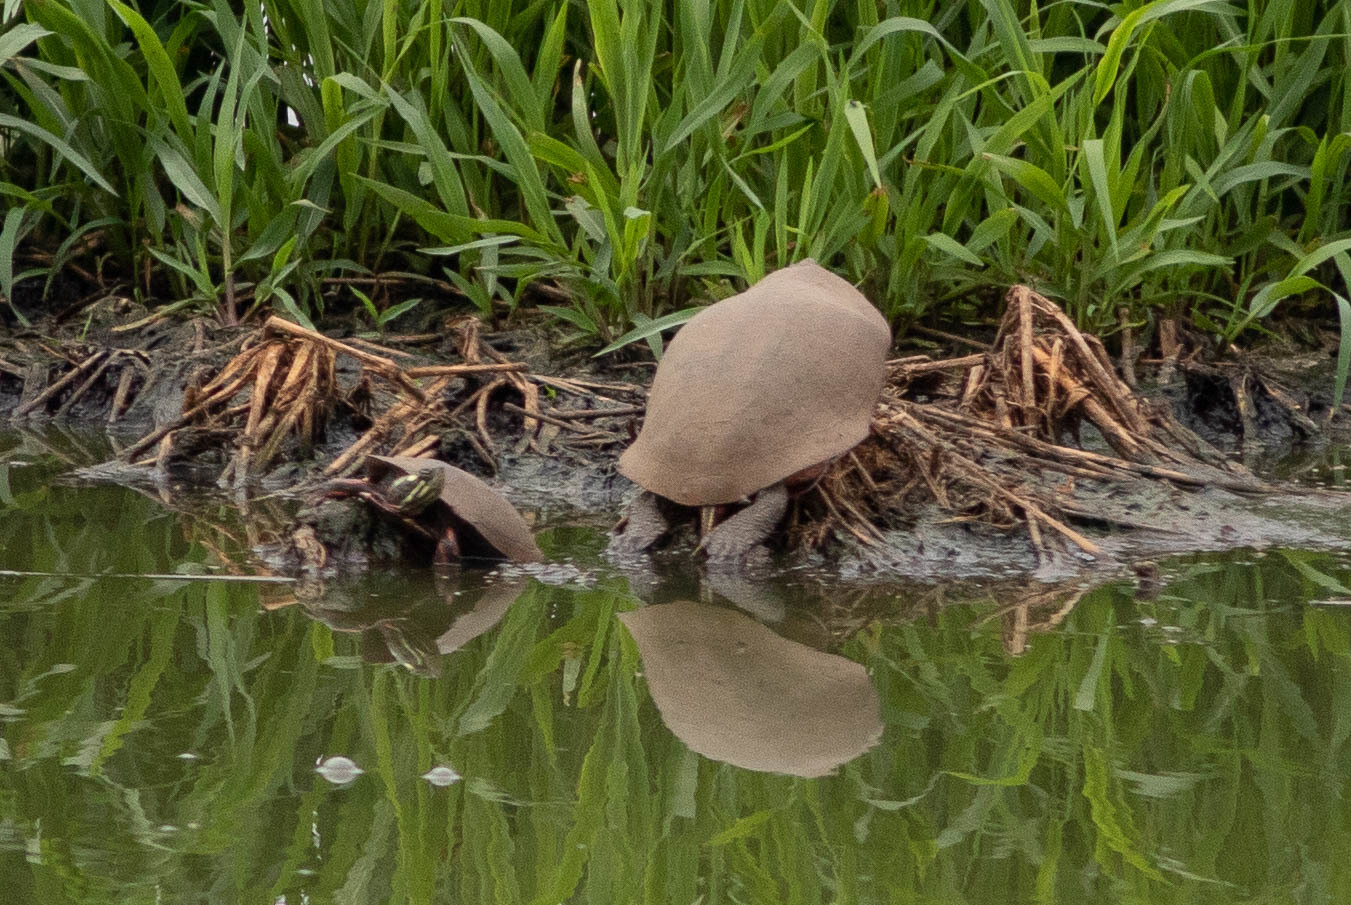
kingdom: Animalia
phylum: Chordata
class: Testudines
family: Emydidae
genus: Chrysemys
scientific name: Chrysemys picta
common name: Painted turtle
